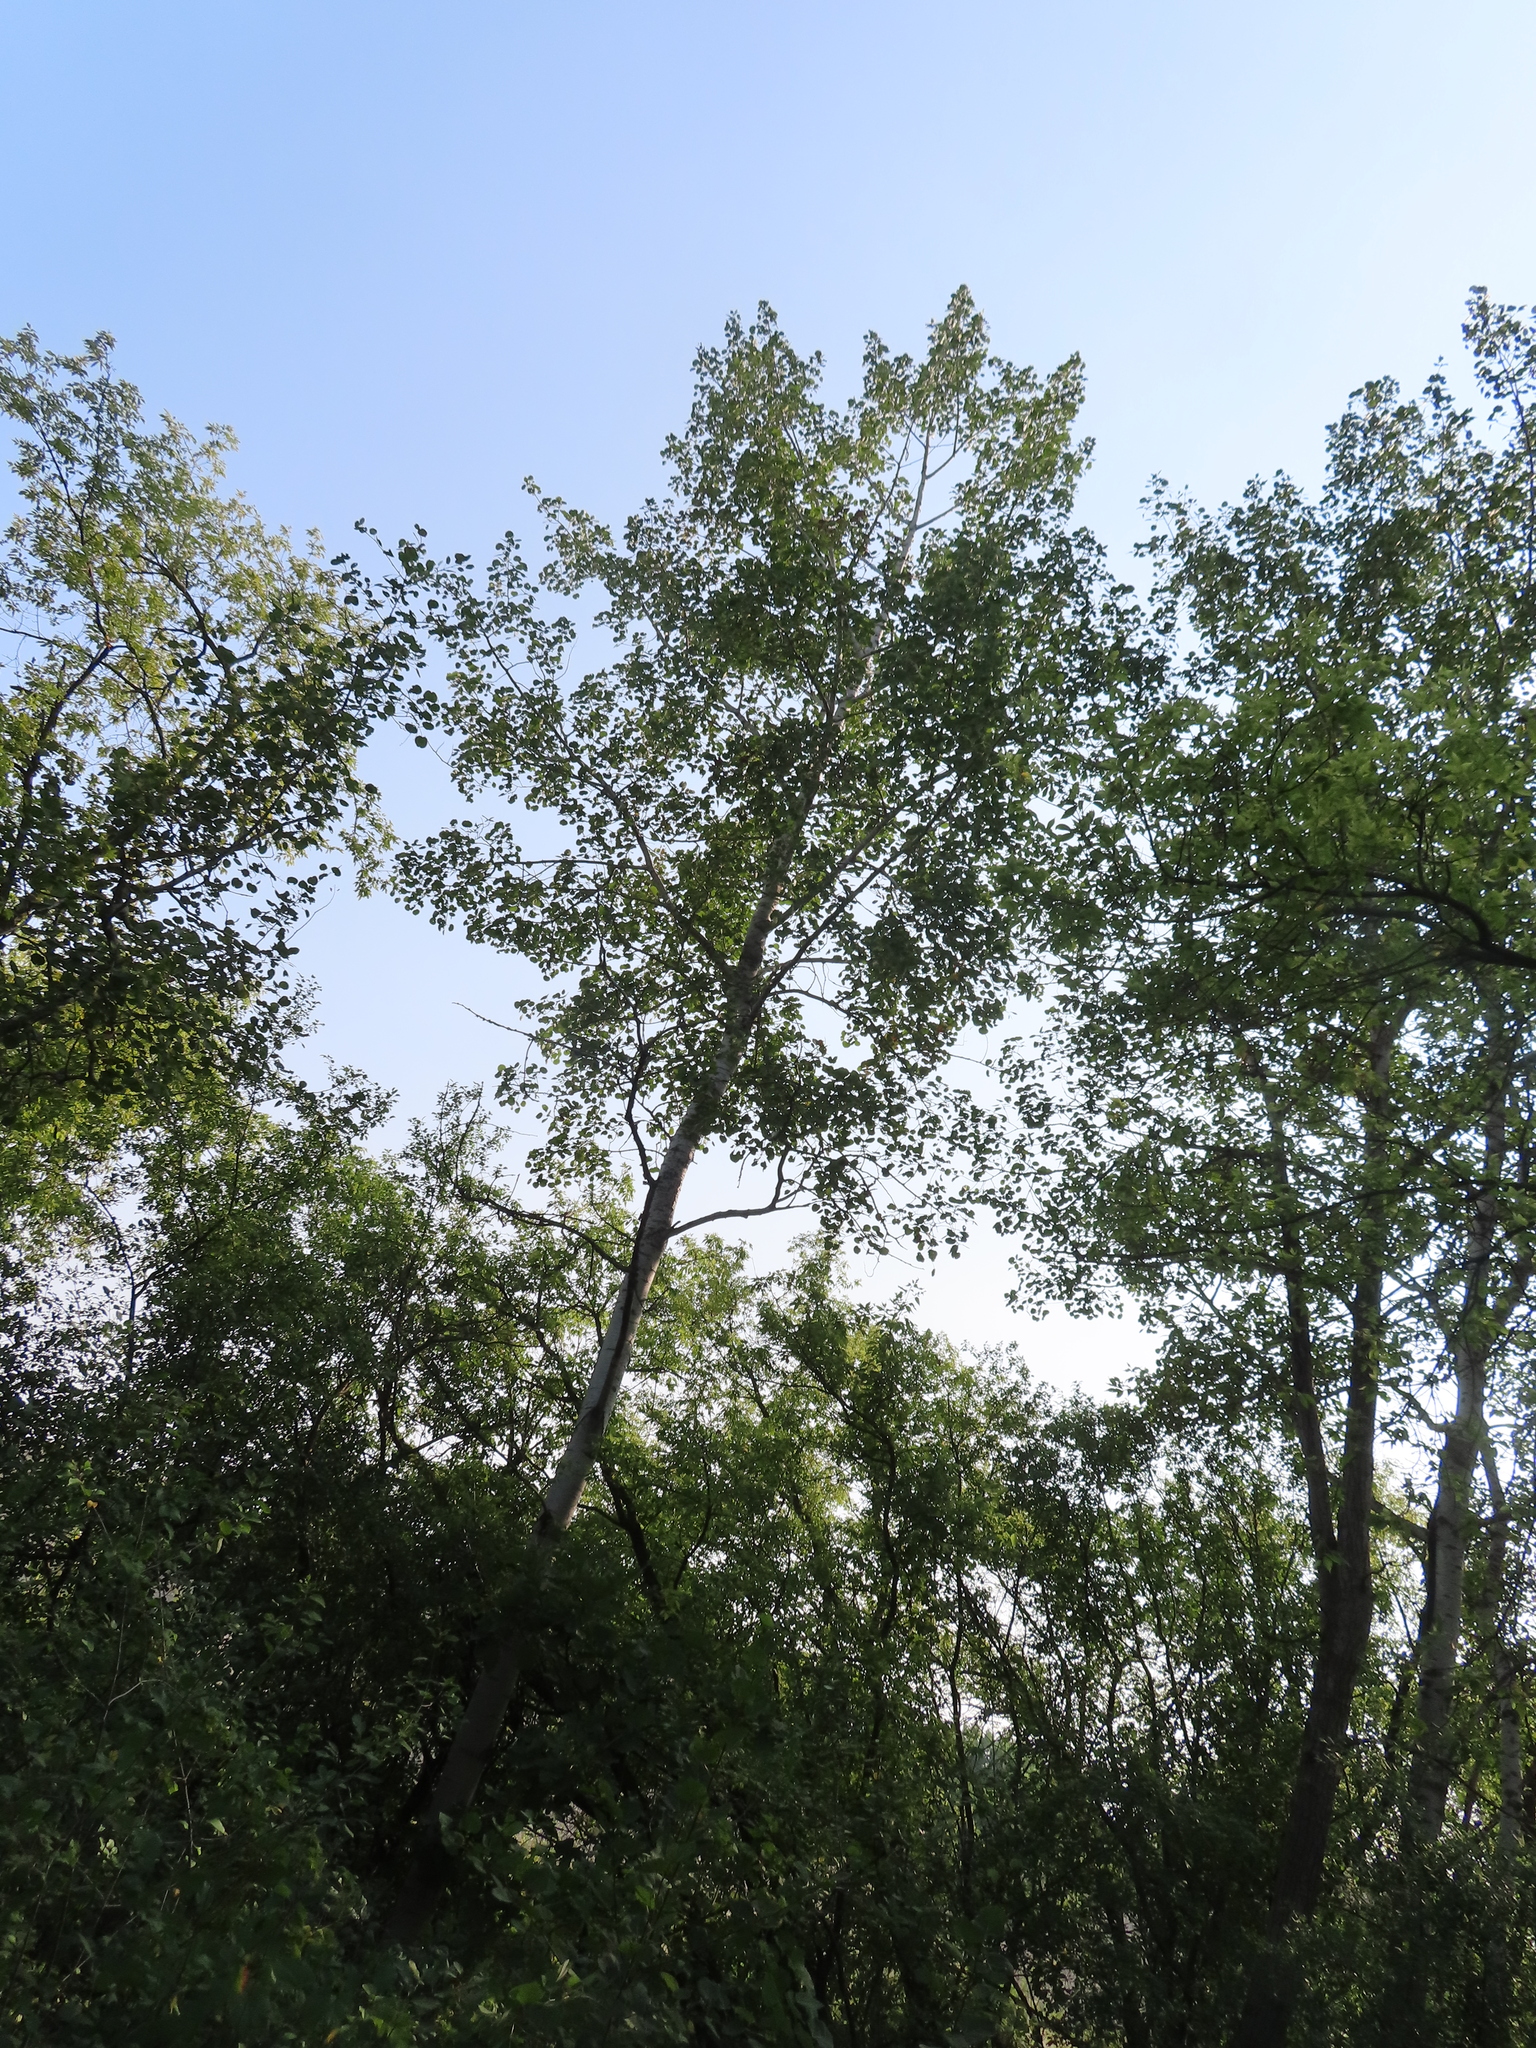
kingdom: Plantae
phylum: Tracheophyta
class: Magnoliopsida
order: Malpighiales
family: Salicaceae
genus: Populus
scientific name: Populus tremuloides
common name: Quaking aspen
